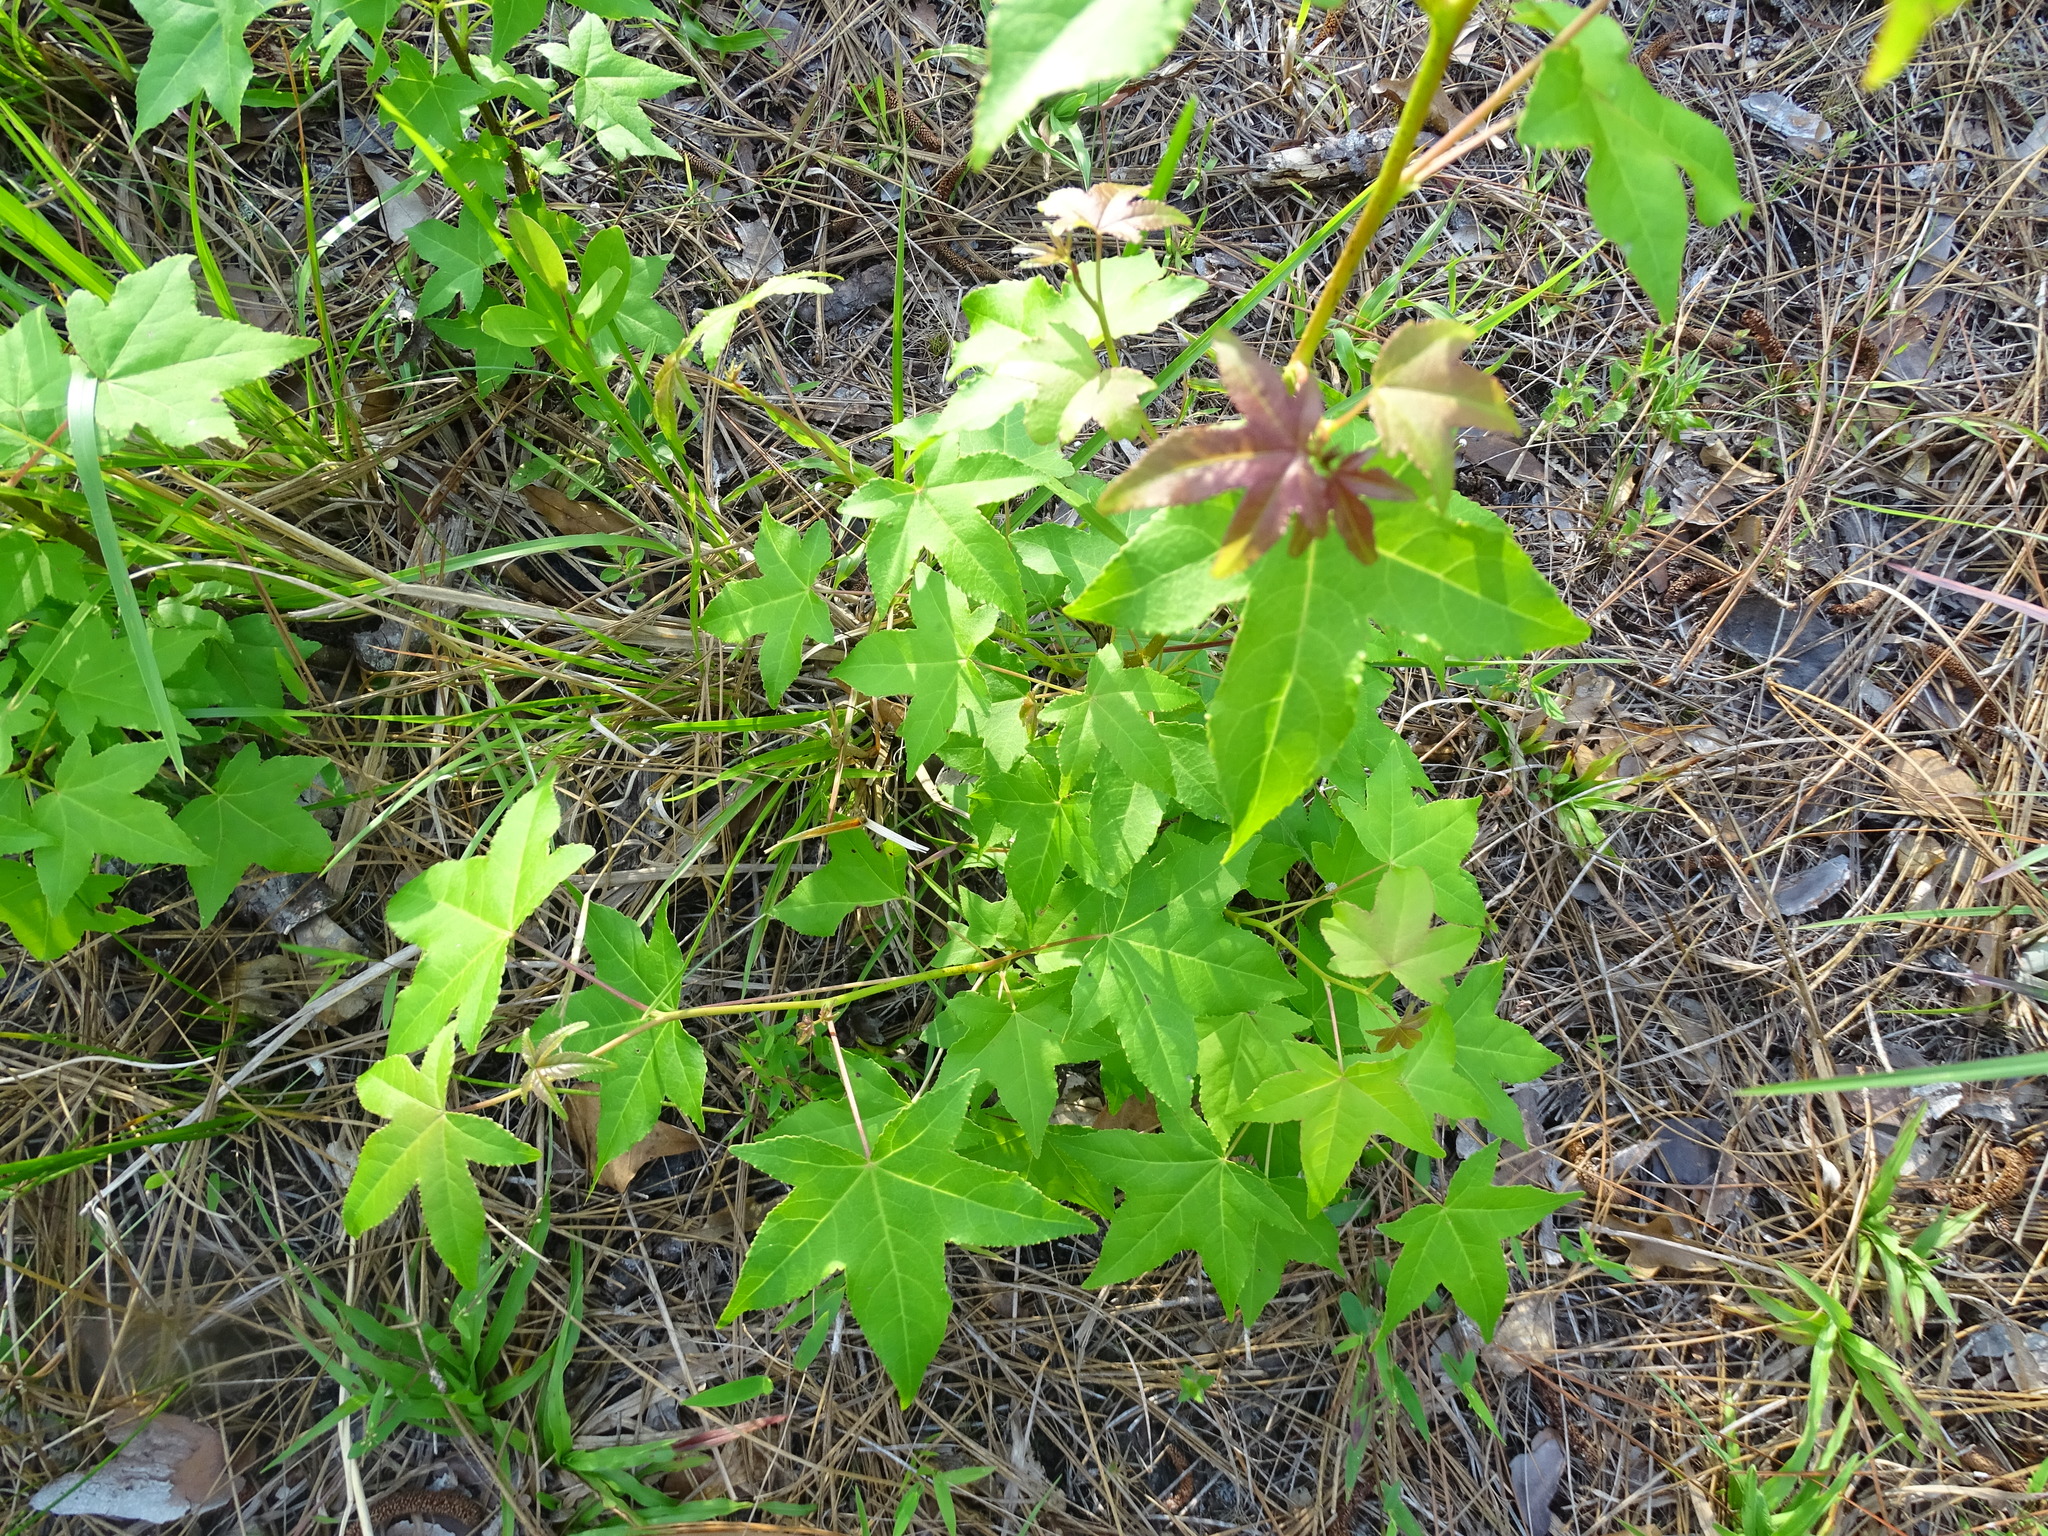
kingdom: Plantae
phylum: Tracheophyta
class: Magnoliopsida
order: Saxifragales
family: Altingiaceae
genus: Liquidambar
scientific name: Liquidambar styraciflua
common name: Sweet gum
